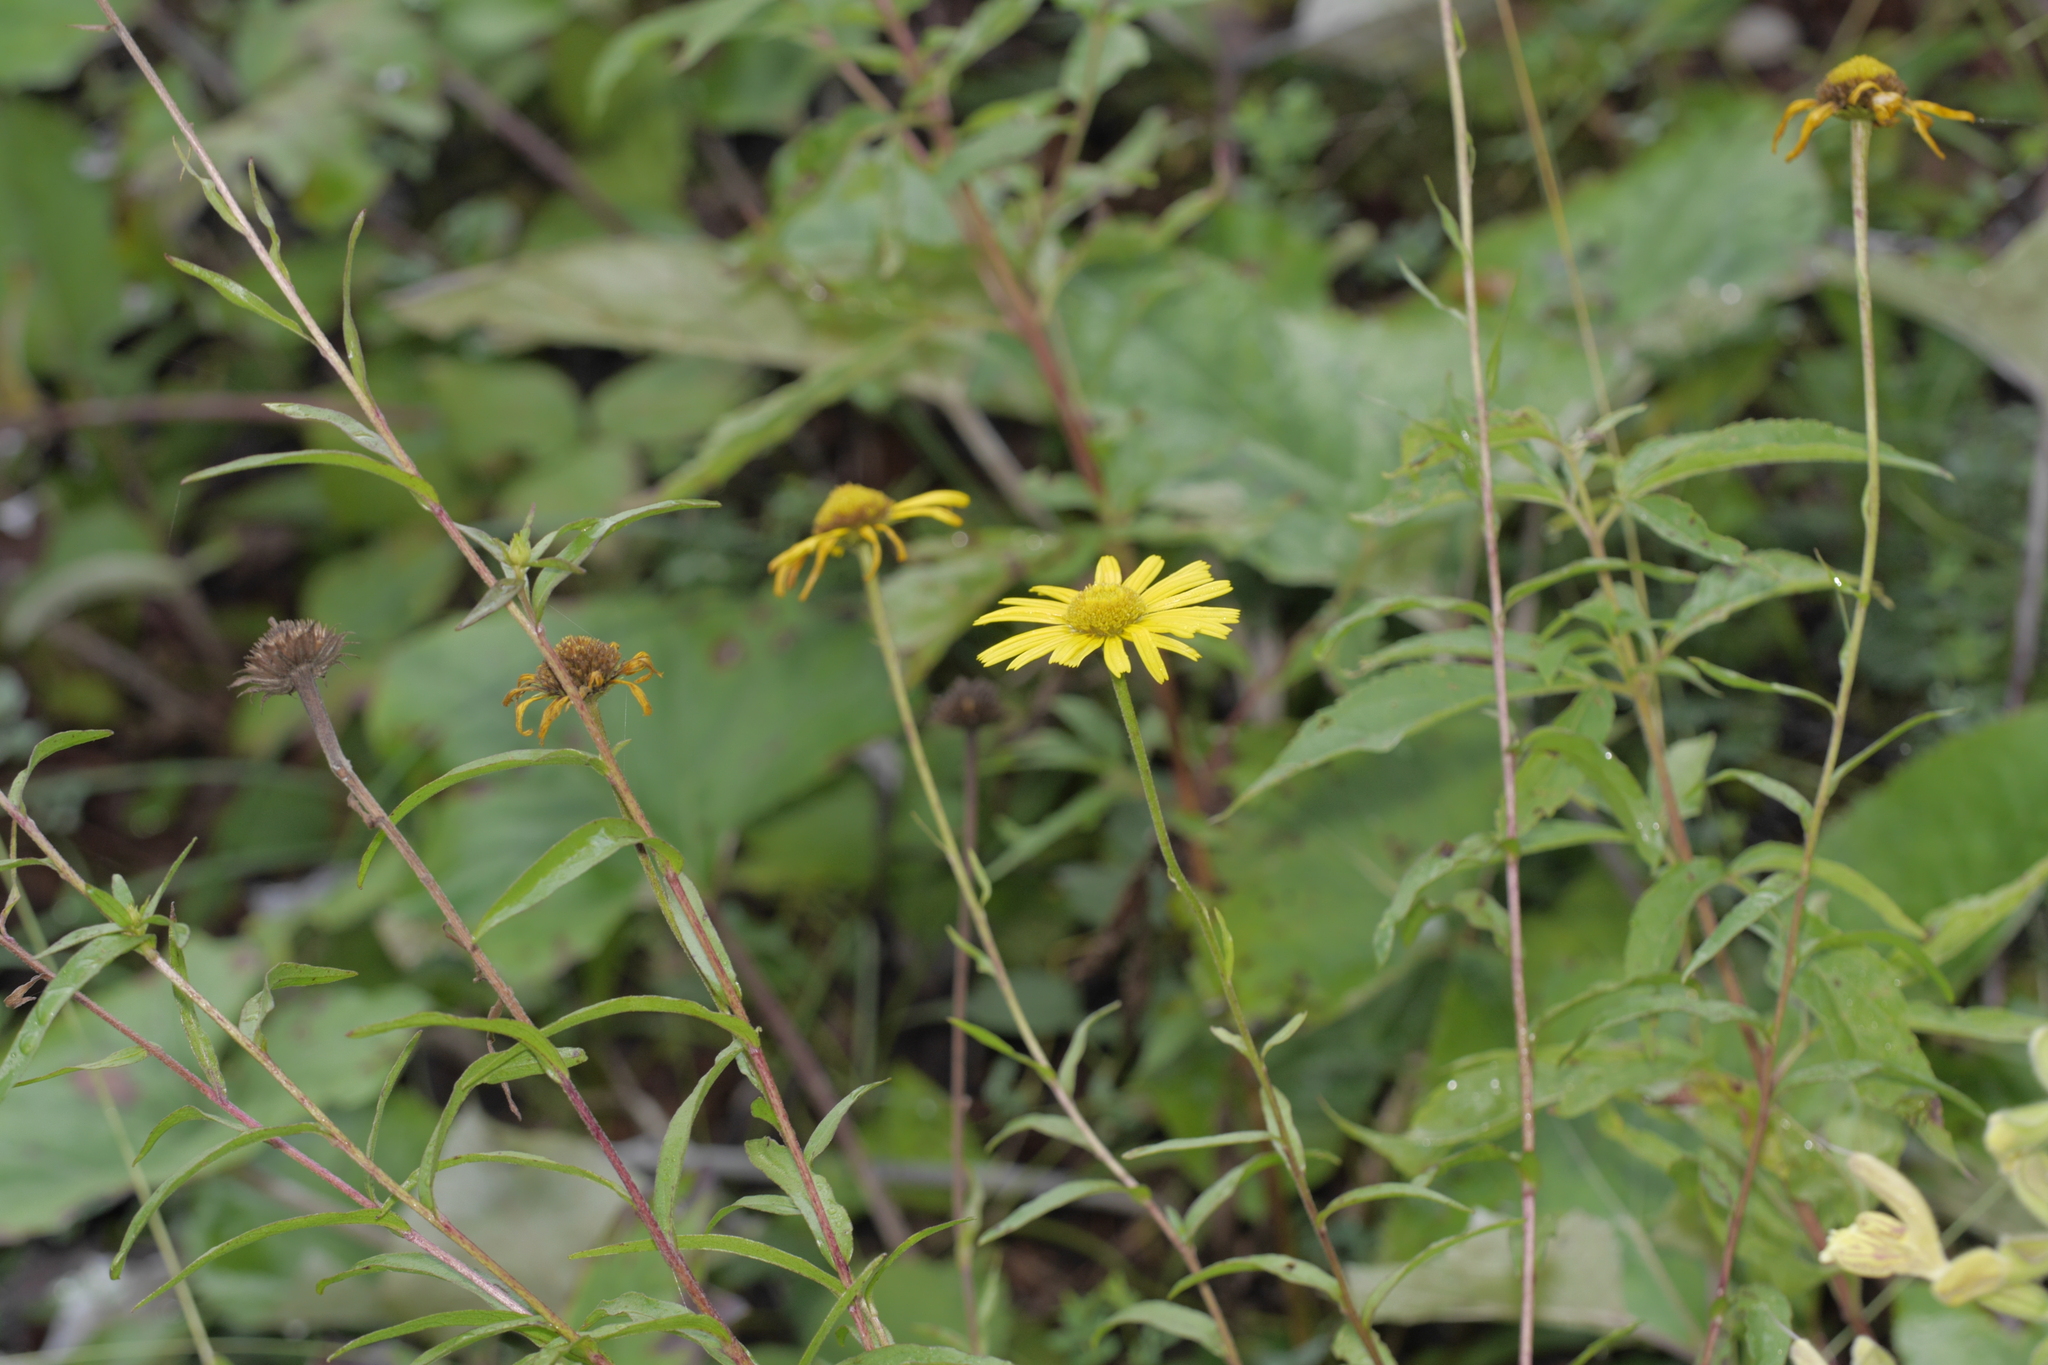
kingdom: Plantae
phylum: Tracheophyta
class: Magnoliopsida
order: Asterales
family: Asteraceae
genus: Buphthalmum
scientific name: Buphthalmum salicifolium
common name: Willow-leaved yellow-oxeye
